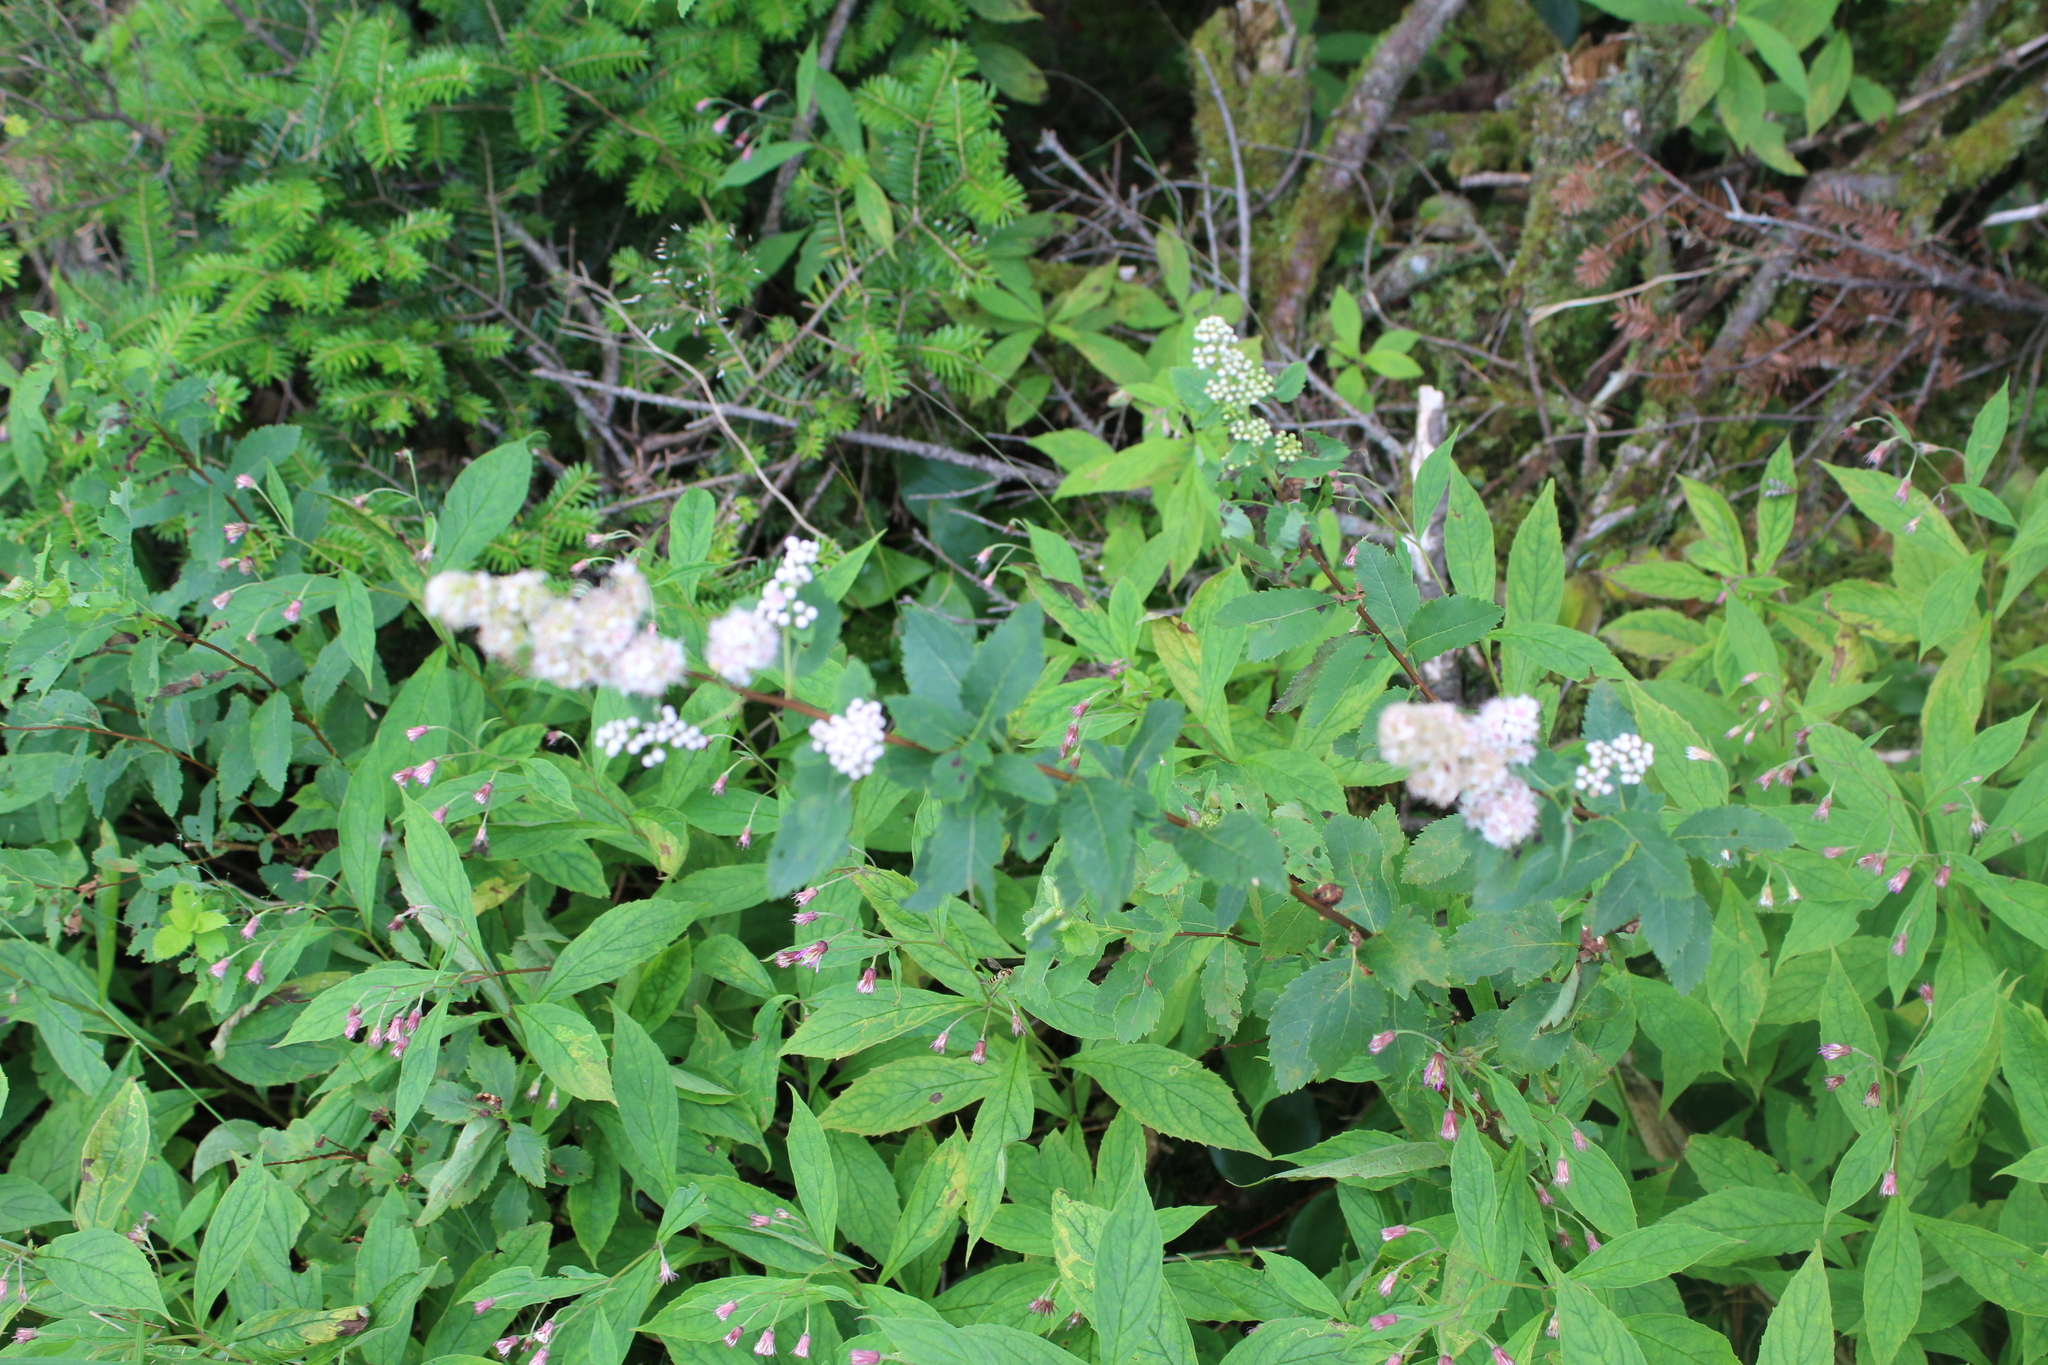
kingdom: Plantae
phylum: Tracheophyta
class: Magnoliopsida
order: Rosales
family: Rosaceae
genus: Spiraea
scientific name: Spiraea alba
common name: Pale bridewort
